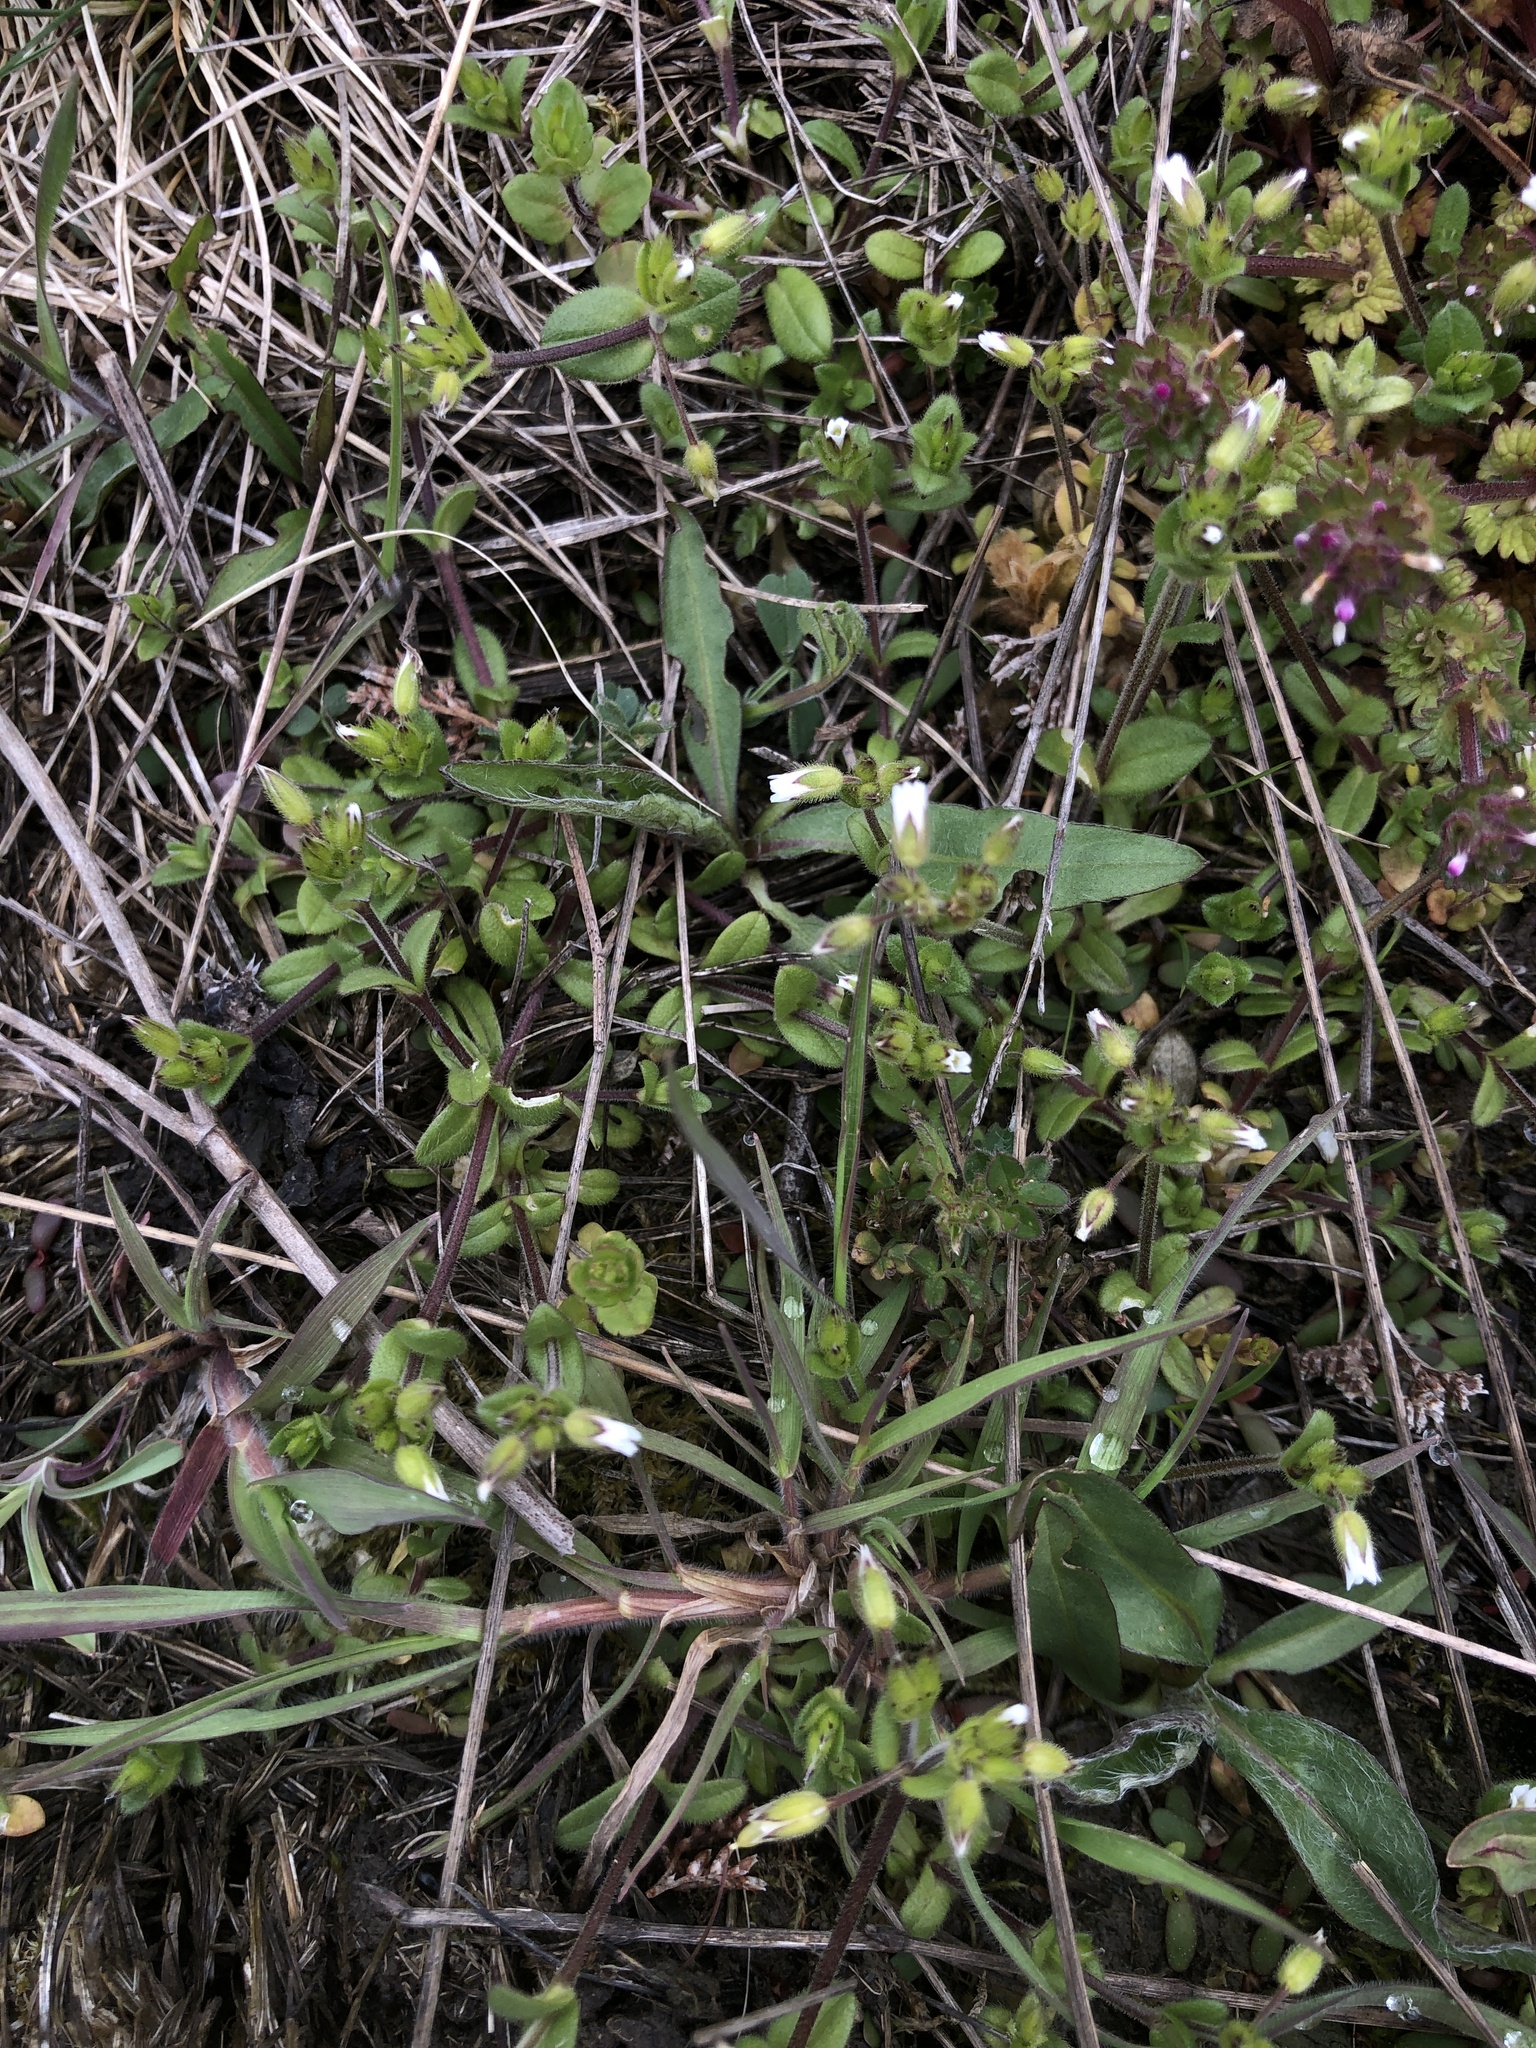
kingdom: Plantae
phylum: Tracheophyta
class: Magnoliopsida
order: Caryophyllales
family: Caryophyllaceae
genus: Cerastium
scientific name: Cerastium holosteoides
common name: Big chickweed
